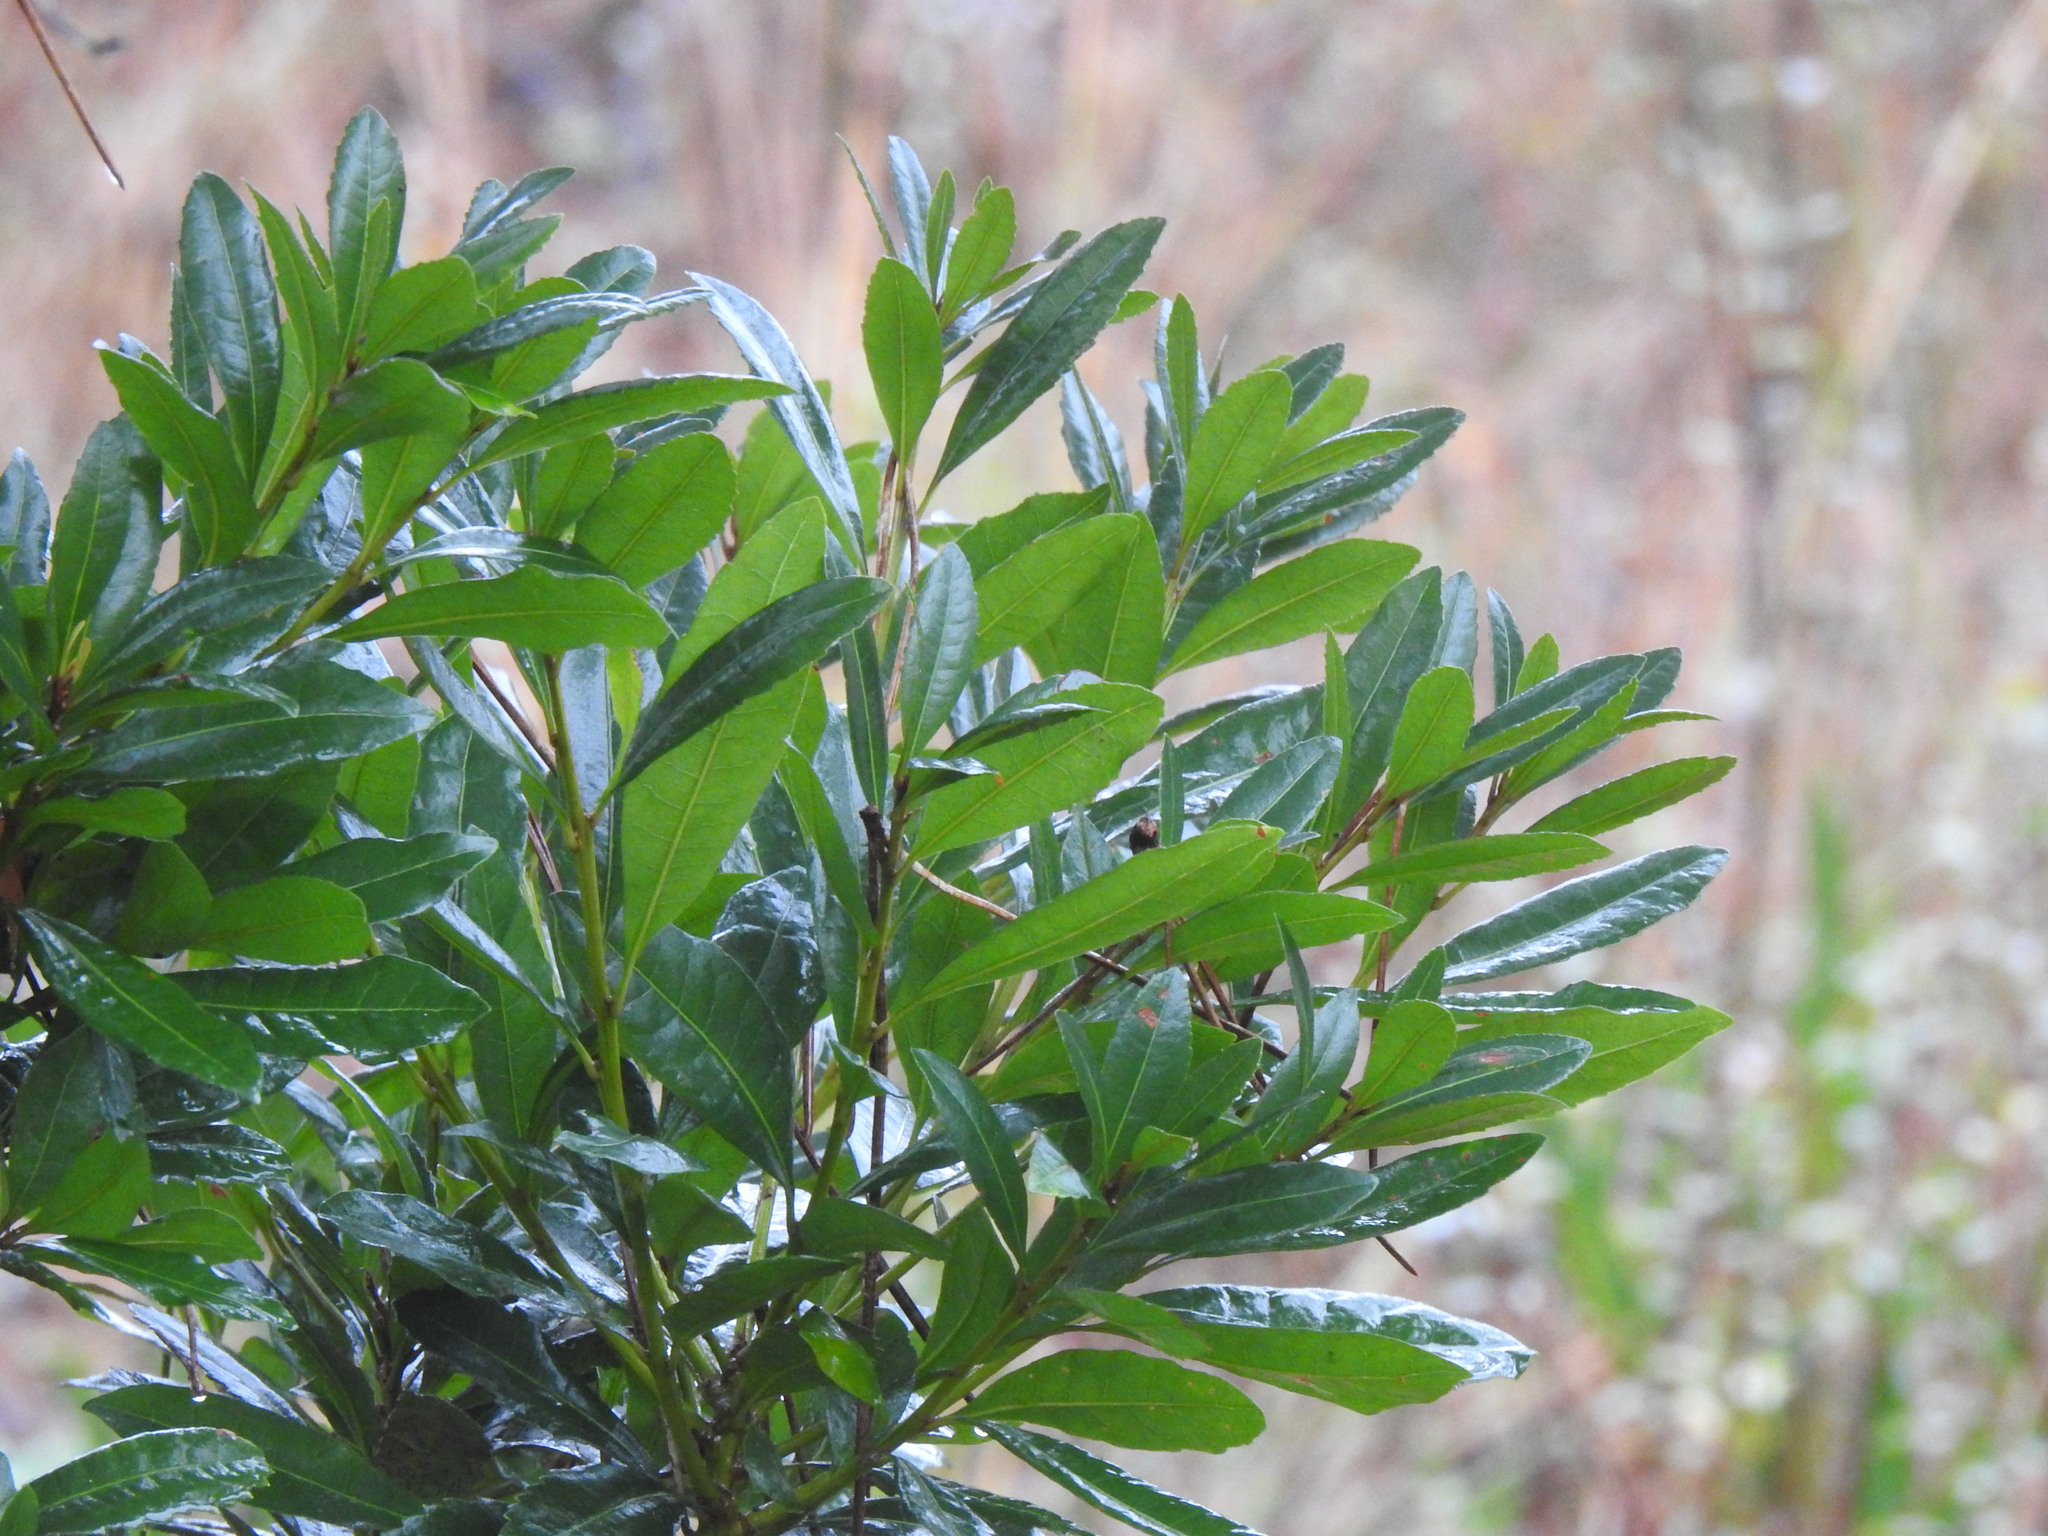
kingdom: Plantae
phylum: Tracheophyta
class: Magnoliopsida
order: Fagales
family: Myricaceae
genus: Morella
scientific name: Morella faya
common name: Firetree
